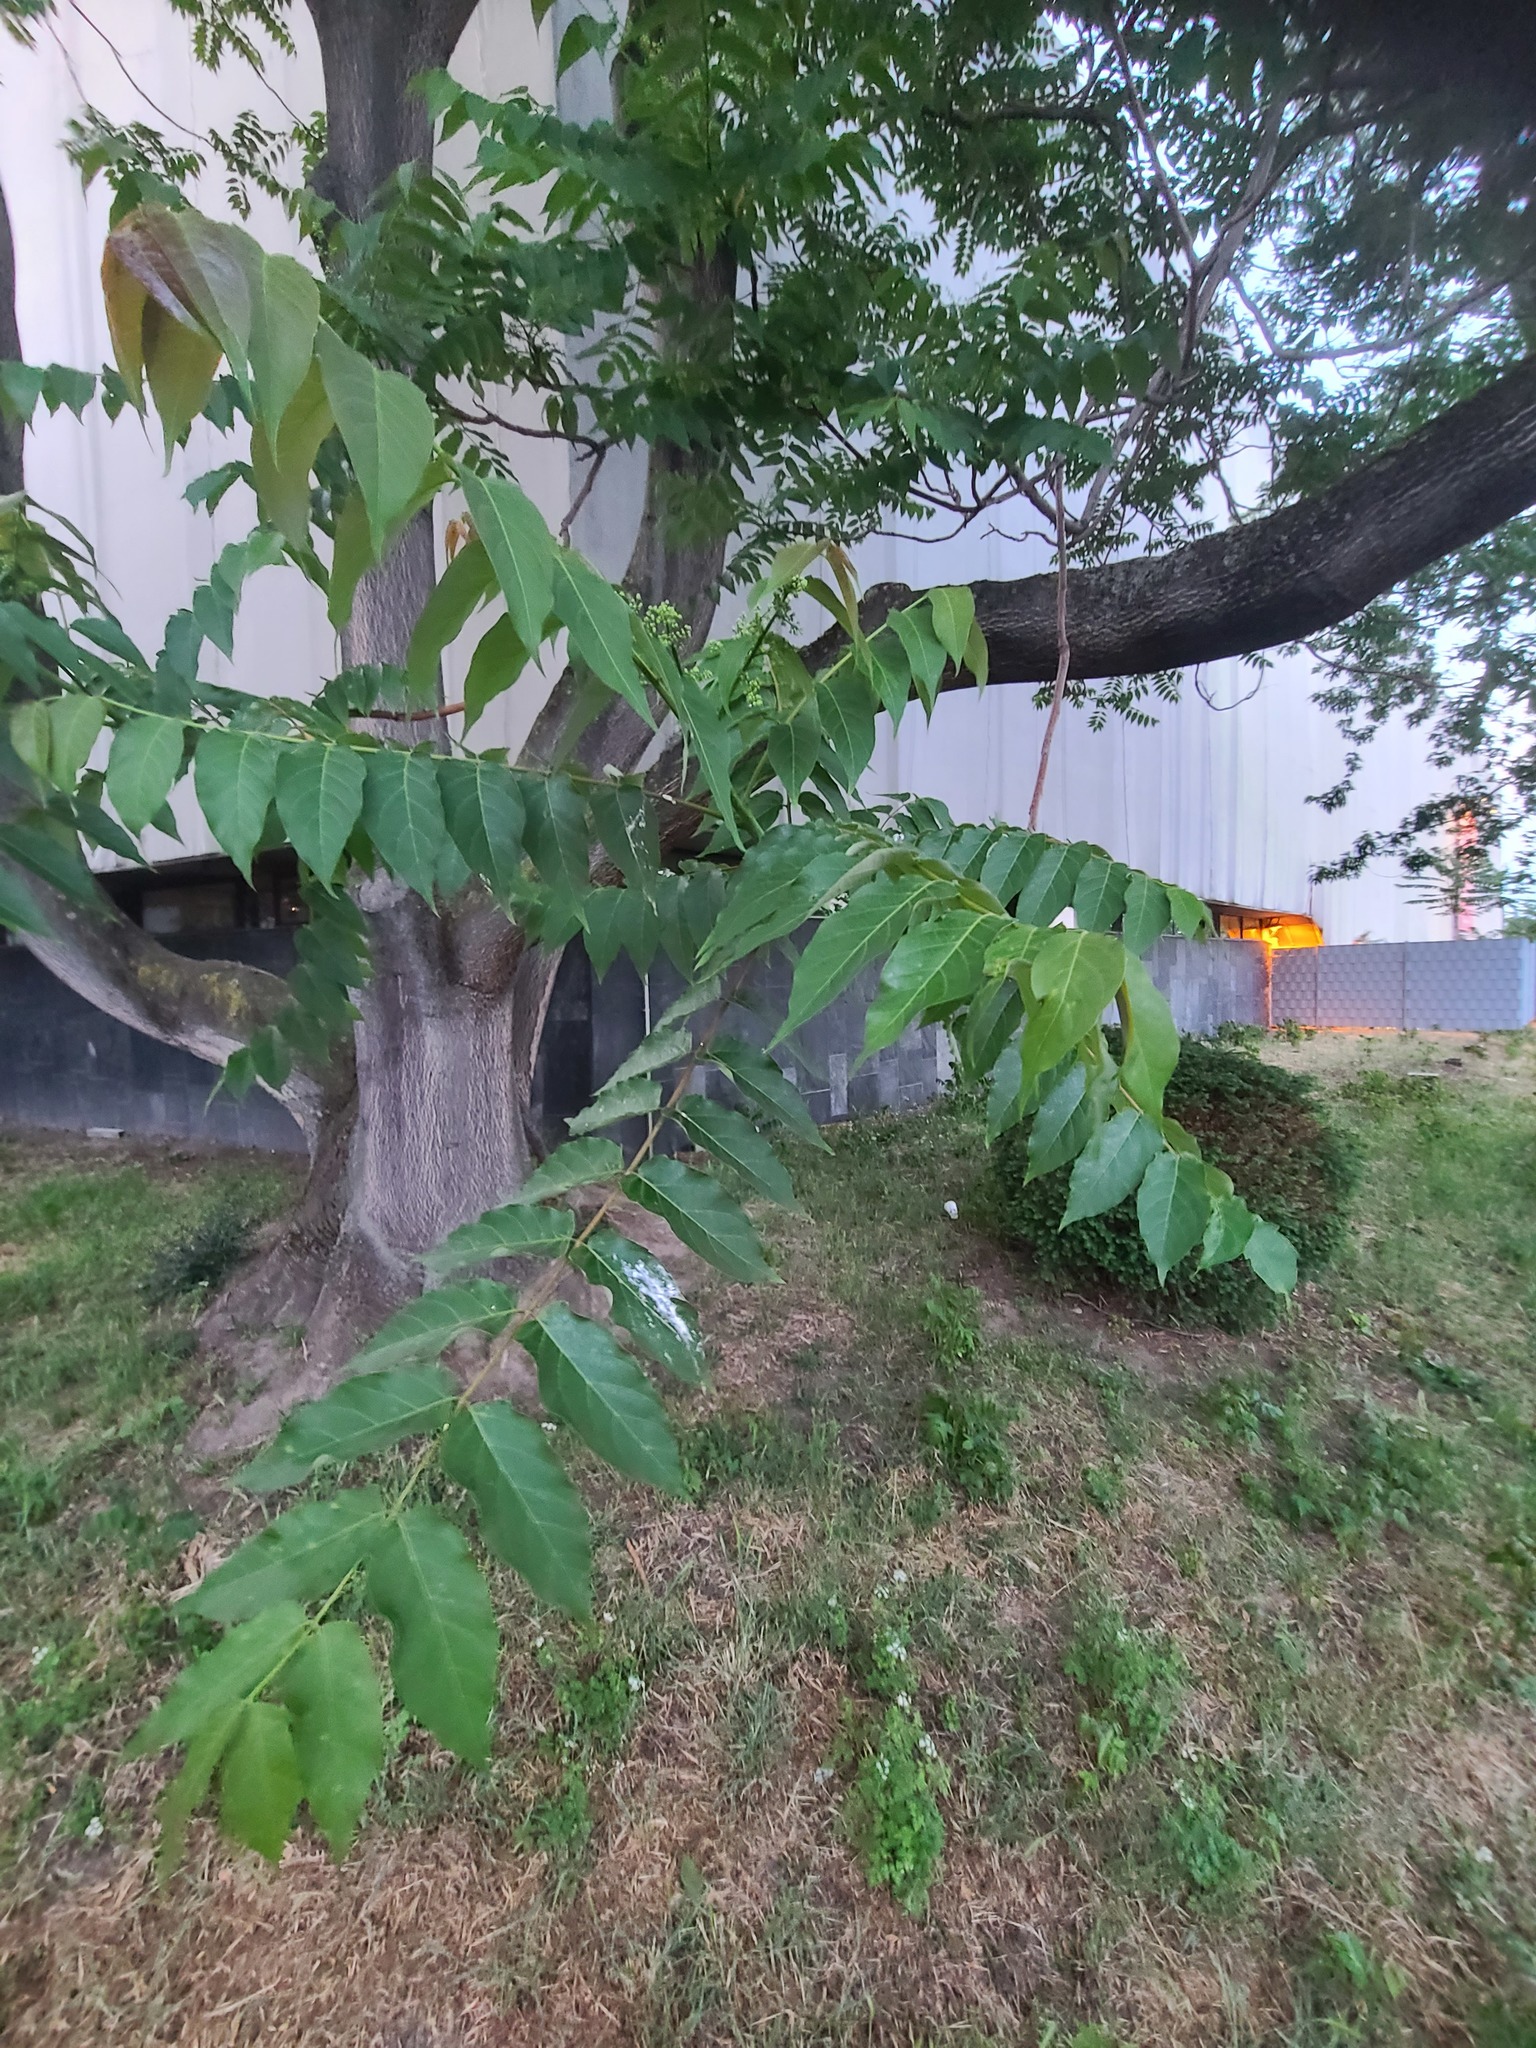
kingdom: Plantae
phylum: Tracheophyta
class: Magnoliopsida
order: Sapindales
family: Simaroubaceae
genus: Ailanthus
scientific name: Ailanthus altissima
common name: Tree-of-heaven
